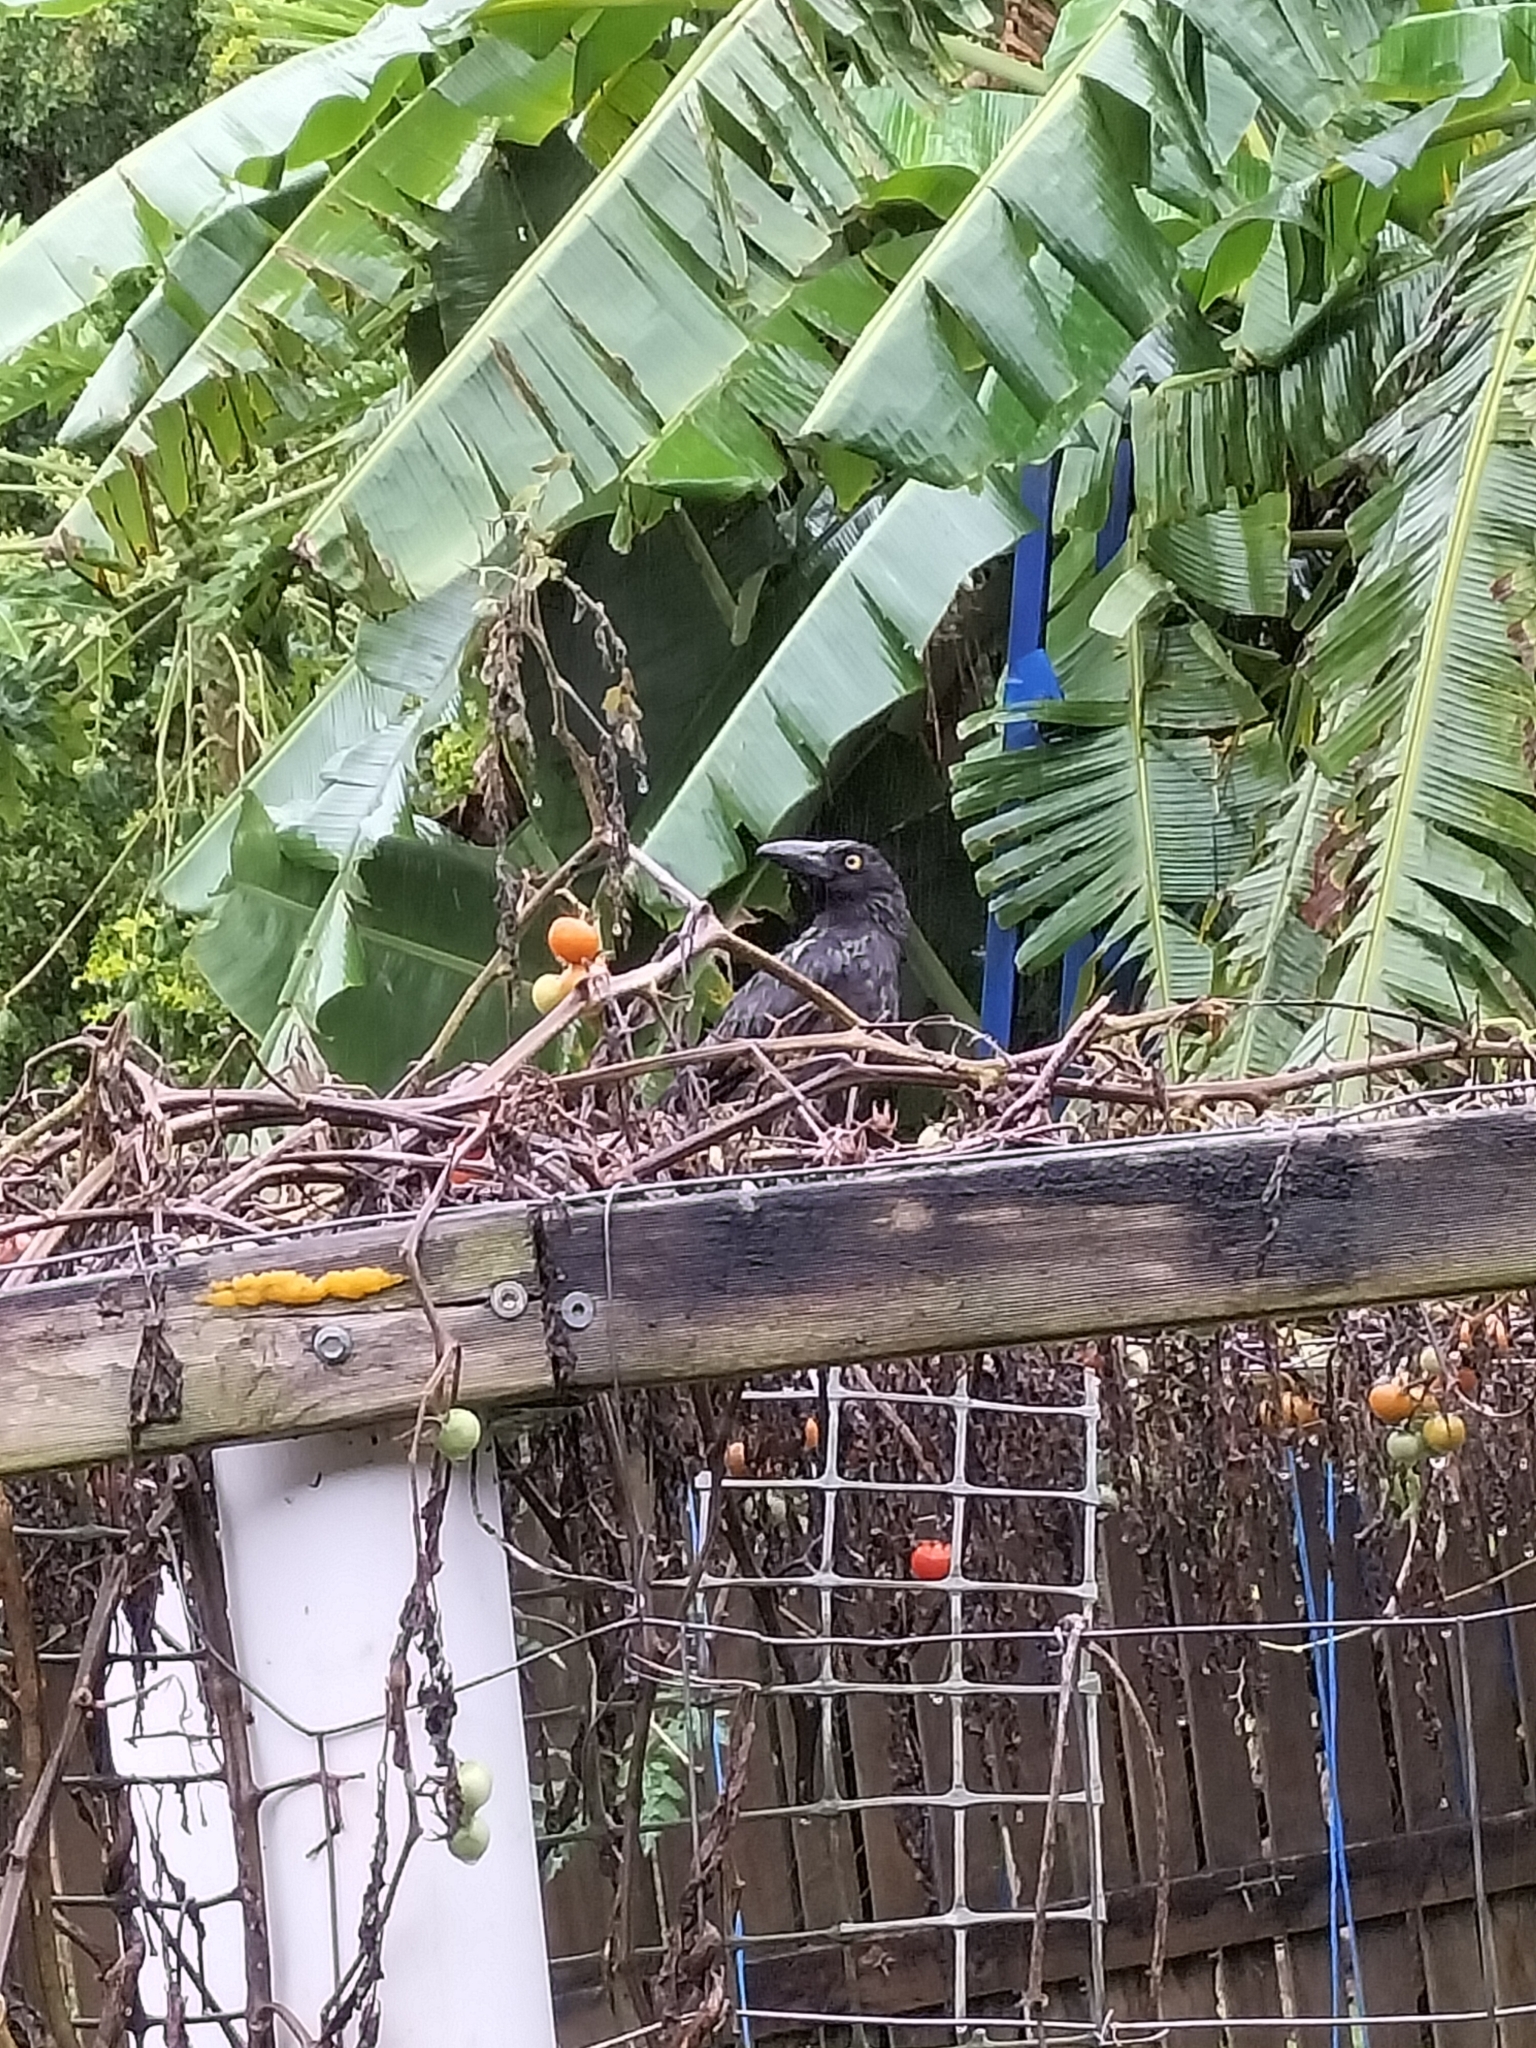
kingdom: Animalia
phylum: Chordata
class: Aves
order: Passeriformes
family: Cracticidae
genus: Strepera
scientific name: Strepera graculina
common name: Pied currawong
